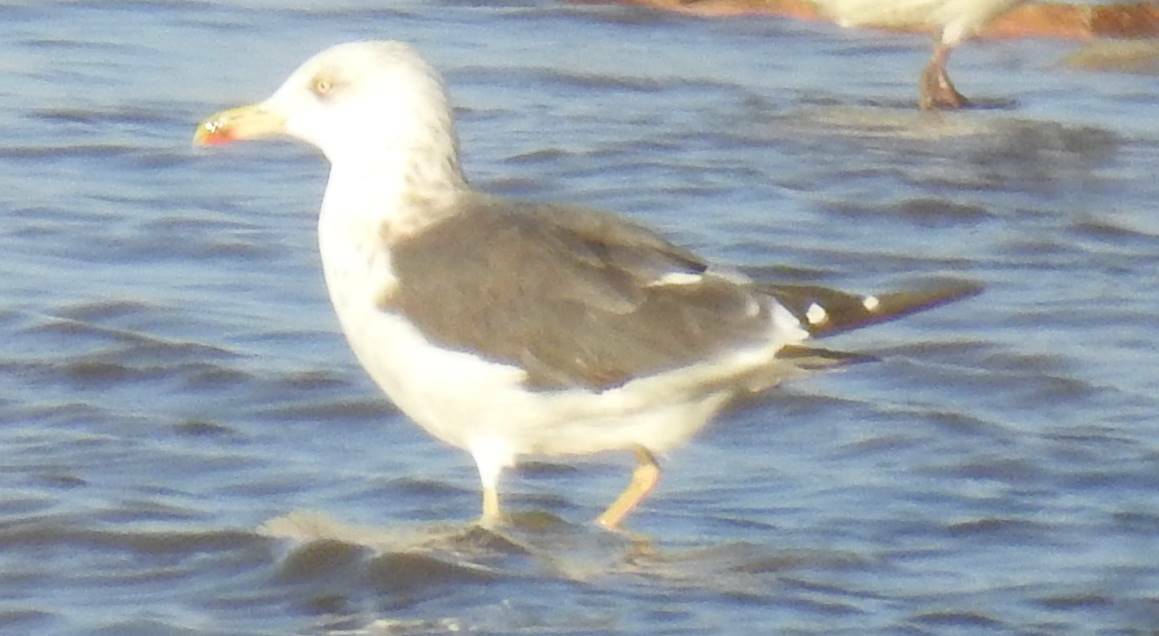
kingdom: Animalia
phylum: Chordata
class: Aves
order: Charadriiformes
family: Laridae
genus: Larus
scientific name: Larus fuscus
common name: Lesser black-backed gull
